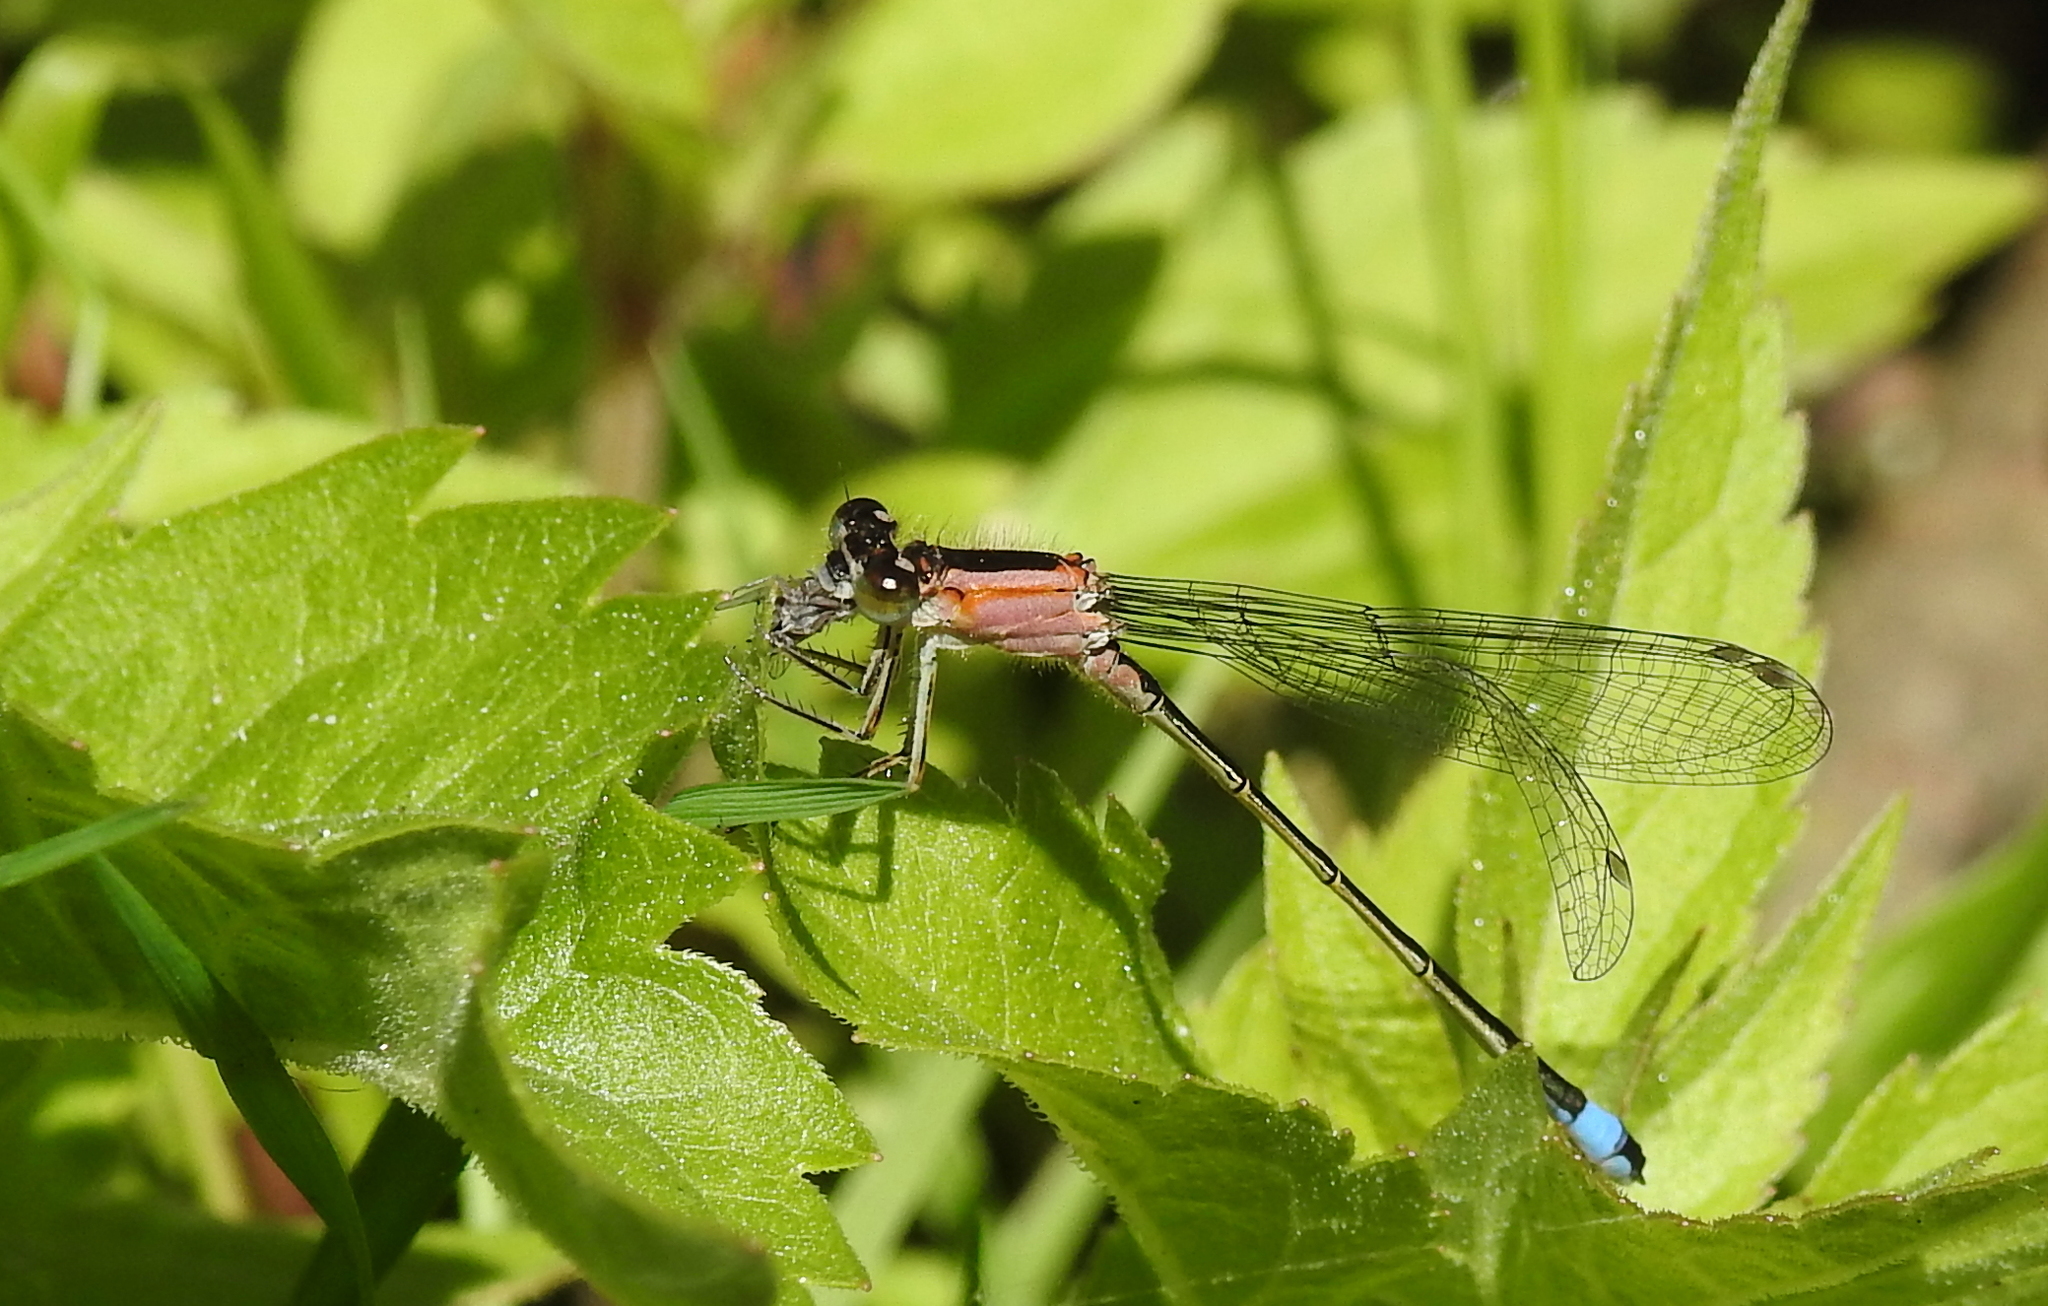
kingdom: Animalia
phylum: Arthropoda
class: Insecta
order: Odonata
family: Coenagrionidae
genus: Ischnura
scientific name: Ischnura elegans
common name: Blue-tailed damselfly
